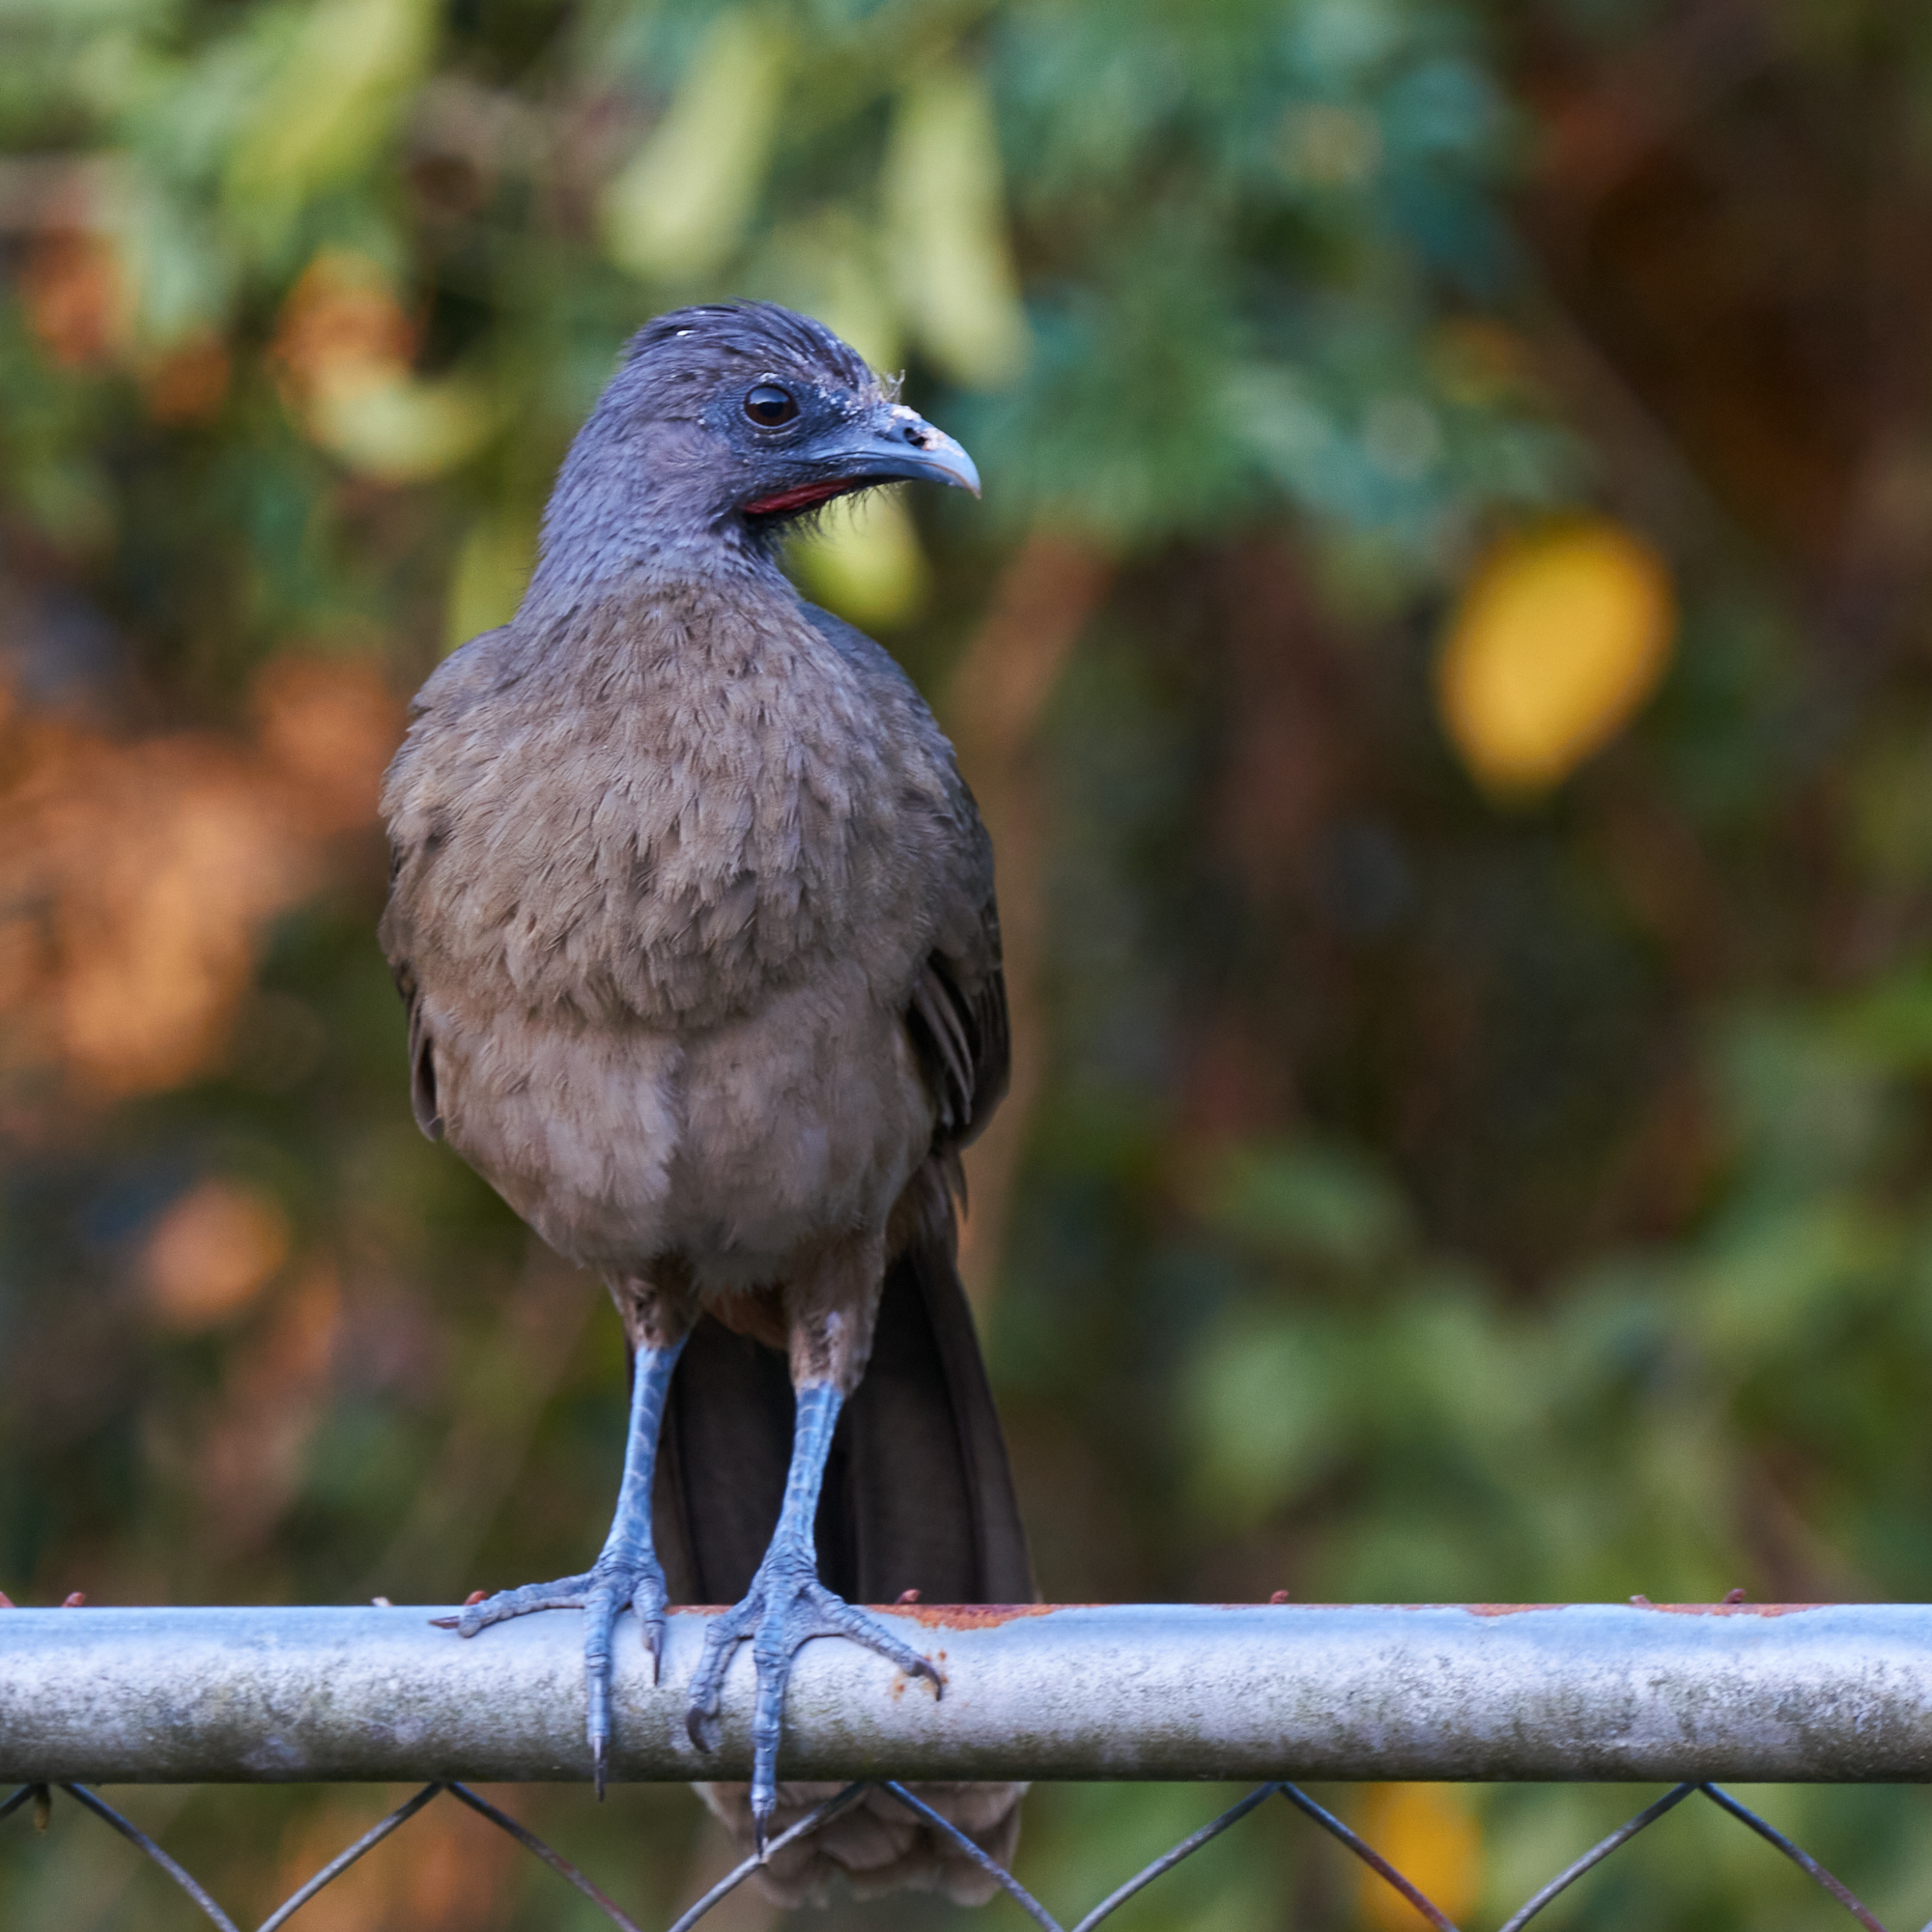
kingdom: Animalia
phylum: Chordata
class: Aves
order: Galliformes
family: Cracidae
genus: Ortalis
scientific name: Ortalis vetula
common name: Plain chachalaca
